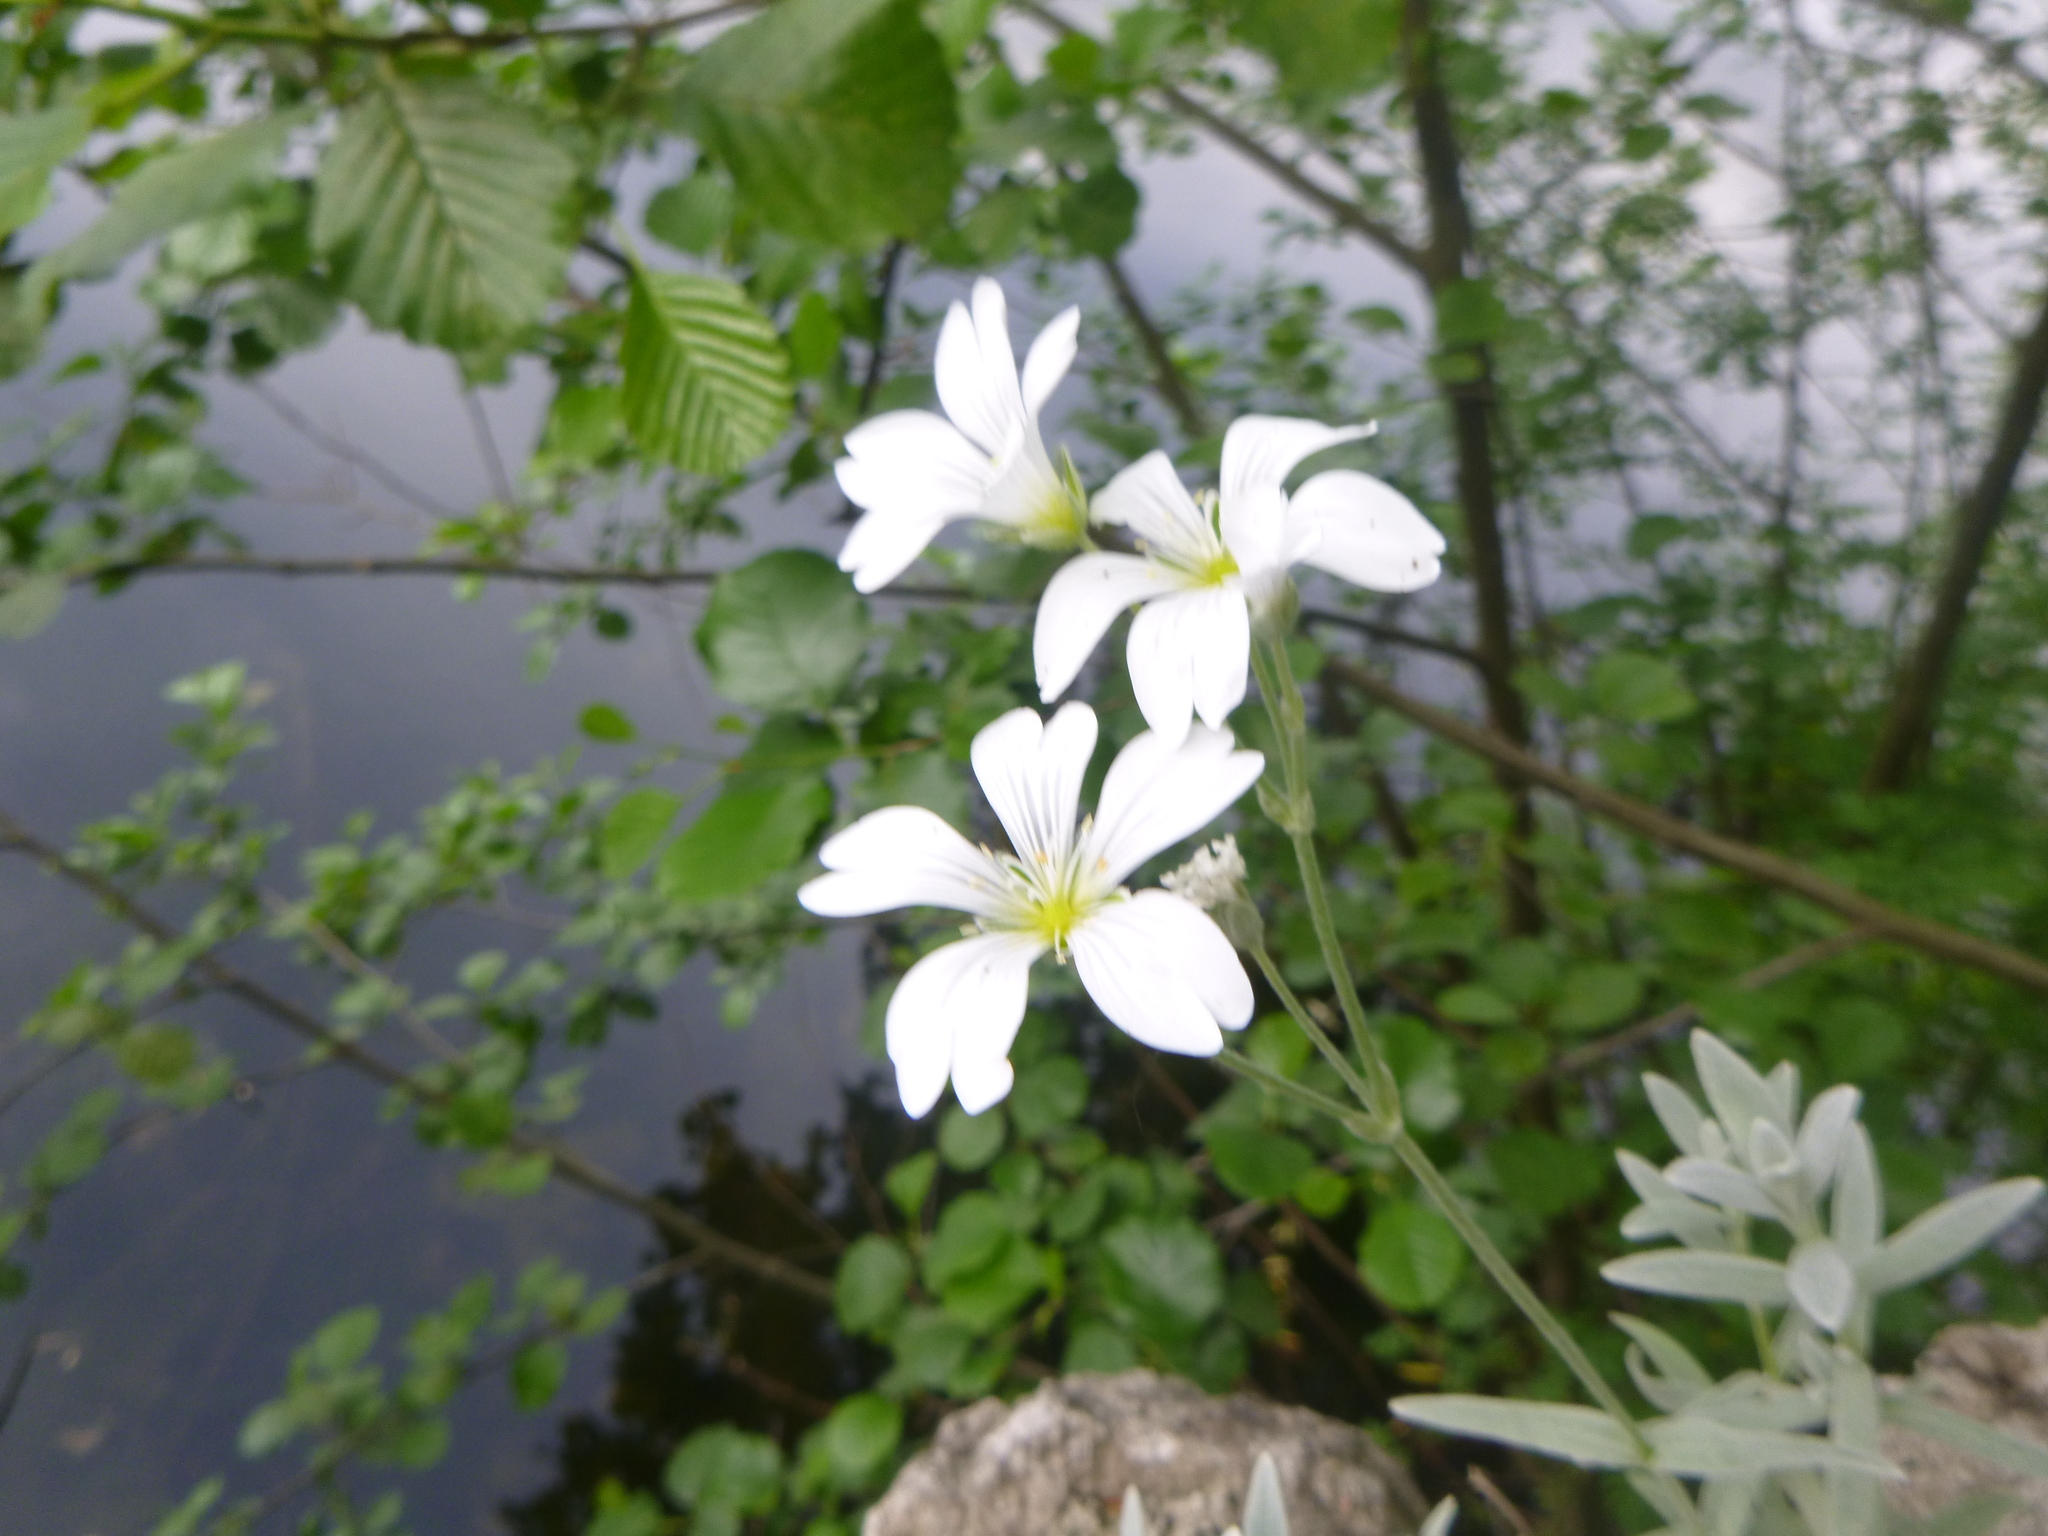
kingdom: Plantae
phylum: Tracheophyta
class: Magnoliopsida
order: Caryophyllales
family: Caryophyllaceae
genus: Cerastium
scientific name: Cerastium tomentosum
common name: Snow-in-summer
